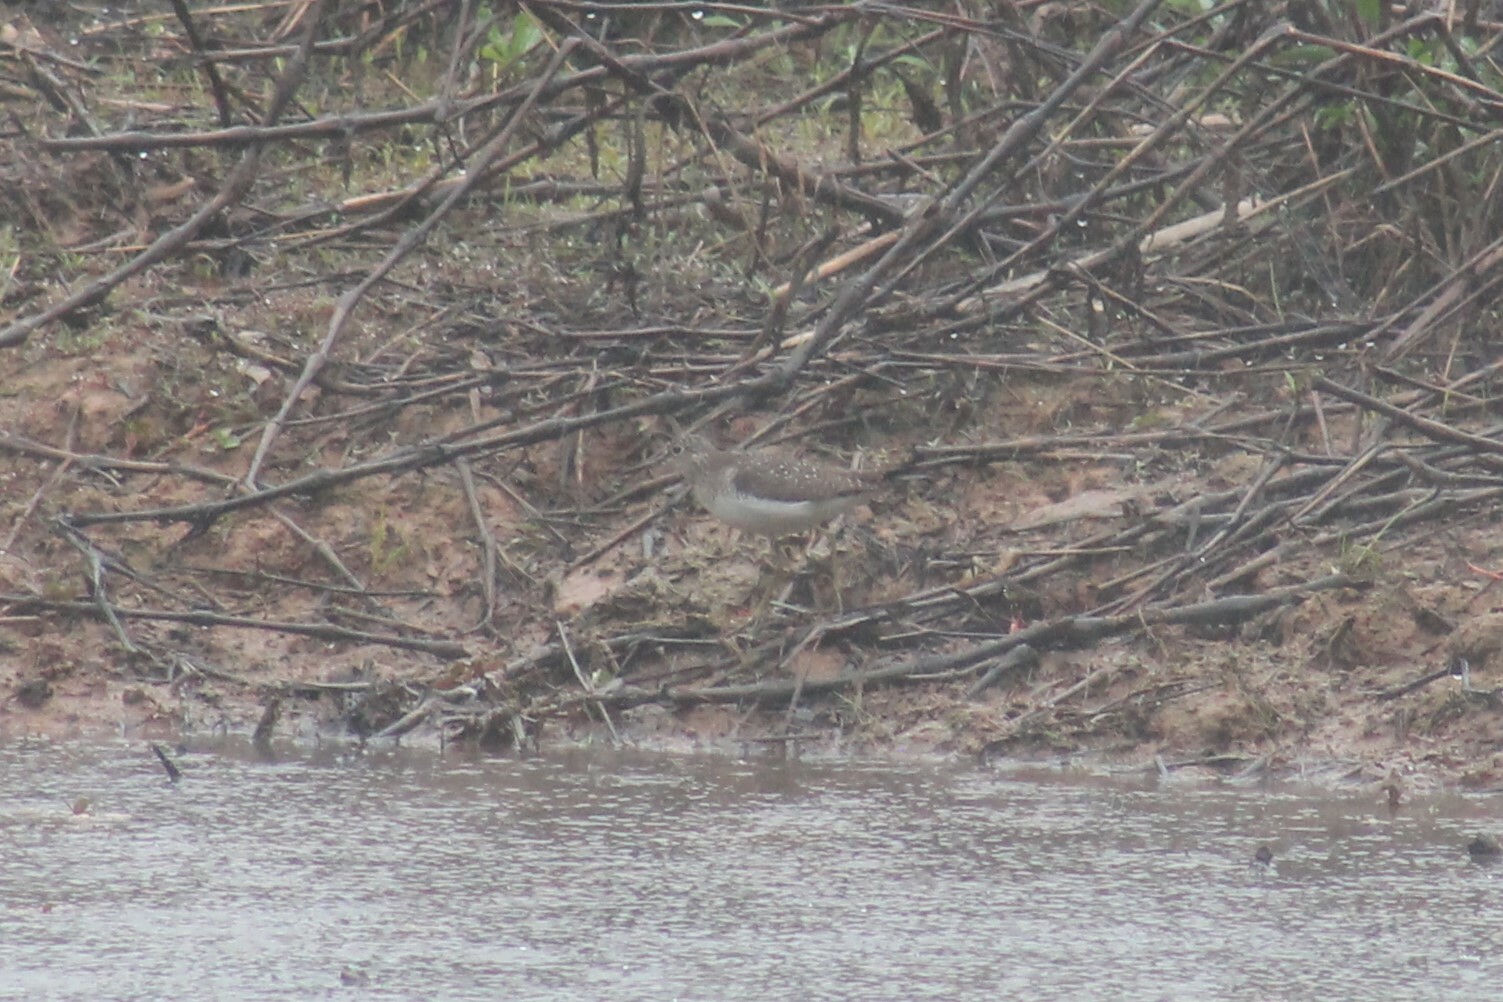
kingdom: Animalia
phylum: Chordata
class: Aves
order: Charadriiformes
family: Scolopacidae
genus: Tringa
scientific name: Tringa solitaria
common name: Solitary sandpiper
